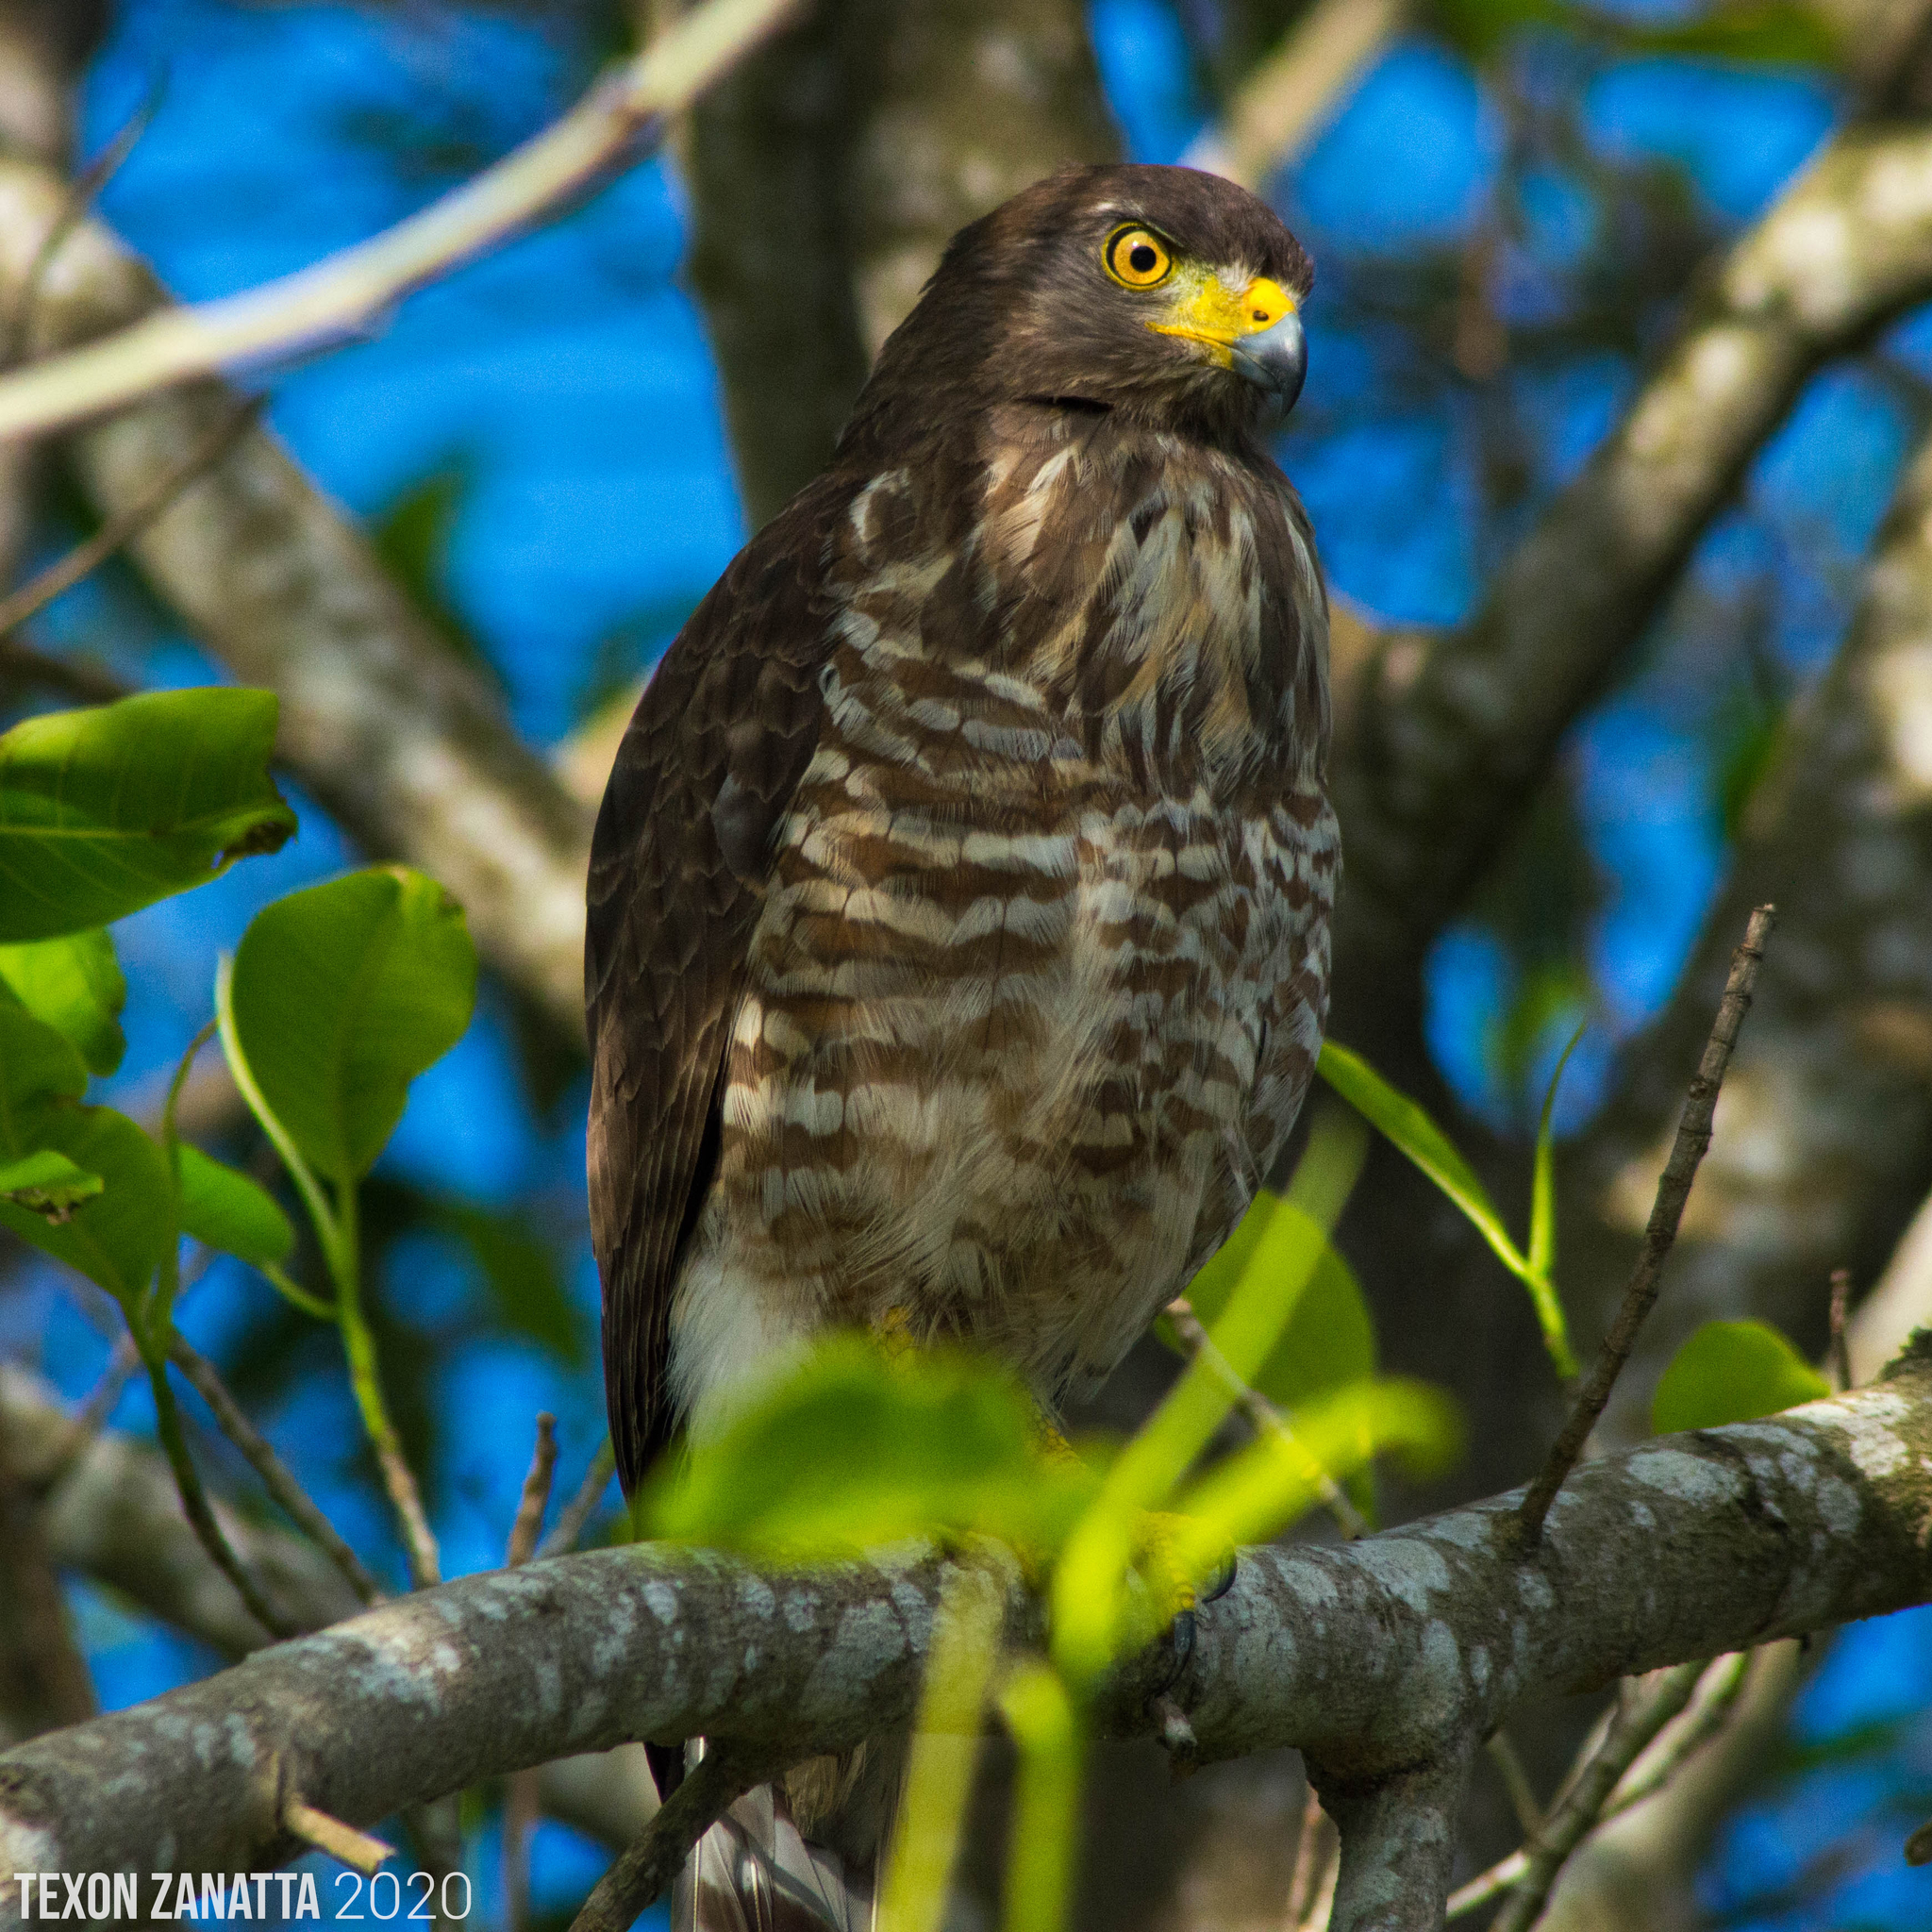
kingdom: Animalia
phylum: Chordata
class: Aves
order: Accipitriformes
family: Accipitridae
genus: Rupornis
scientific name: Rupornis magnirostris
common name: Roadside hawk
